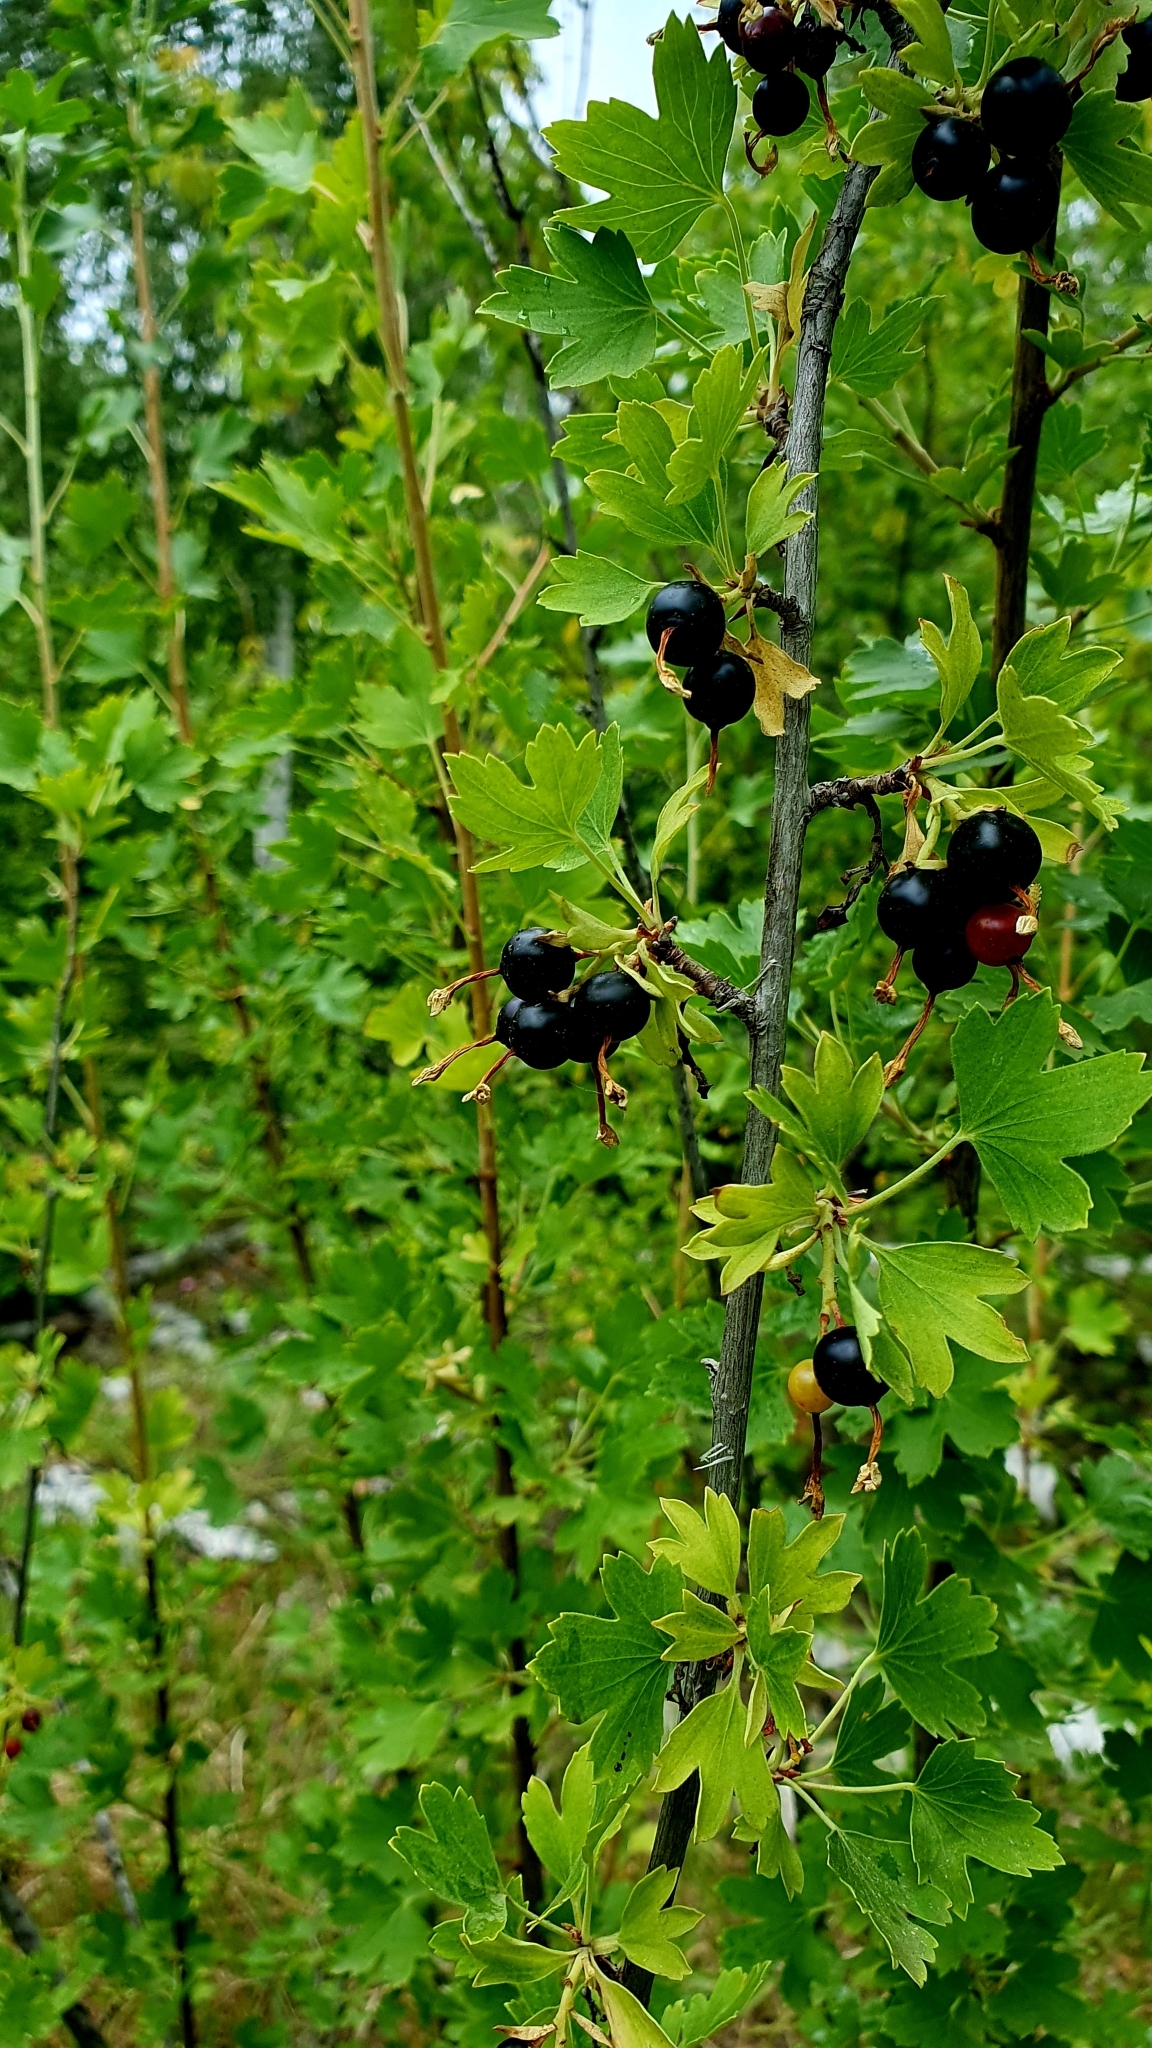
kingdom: Plantae
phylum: Tracheophyta
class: Magnoliopsida
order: Saxifragales
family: Grossulariaceae
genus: Ribes
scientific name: Ribes aureum
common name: Golden currant
